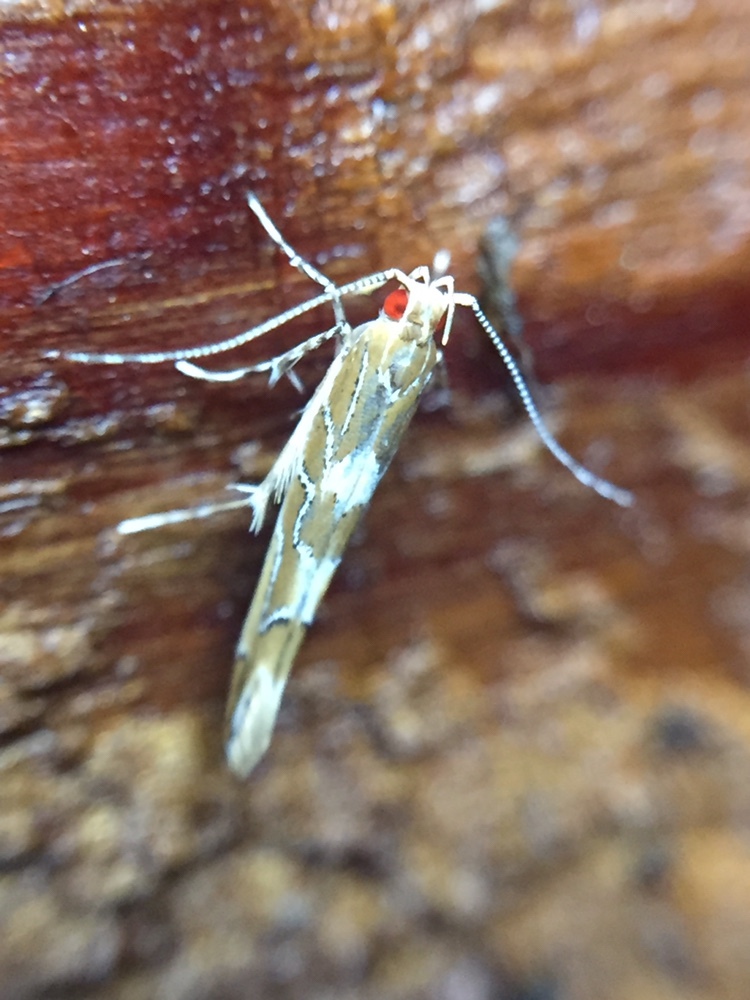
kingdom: Animalia
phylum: Arthropoda
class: Insecta
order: Lepidoptera
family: Cosmopterigidae
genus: Pyroderces
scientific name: Pyroderces apparitella
